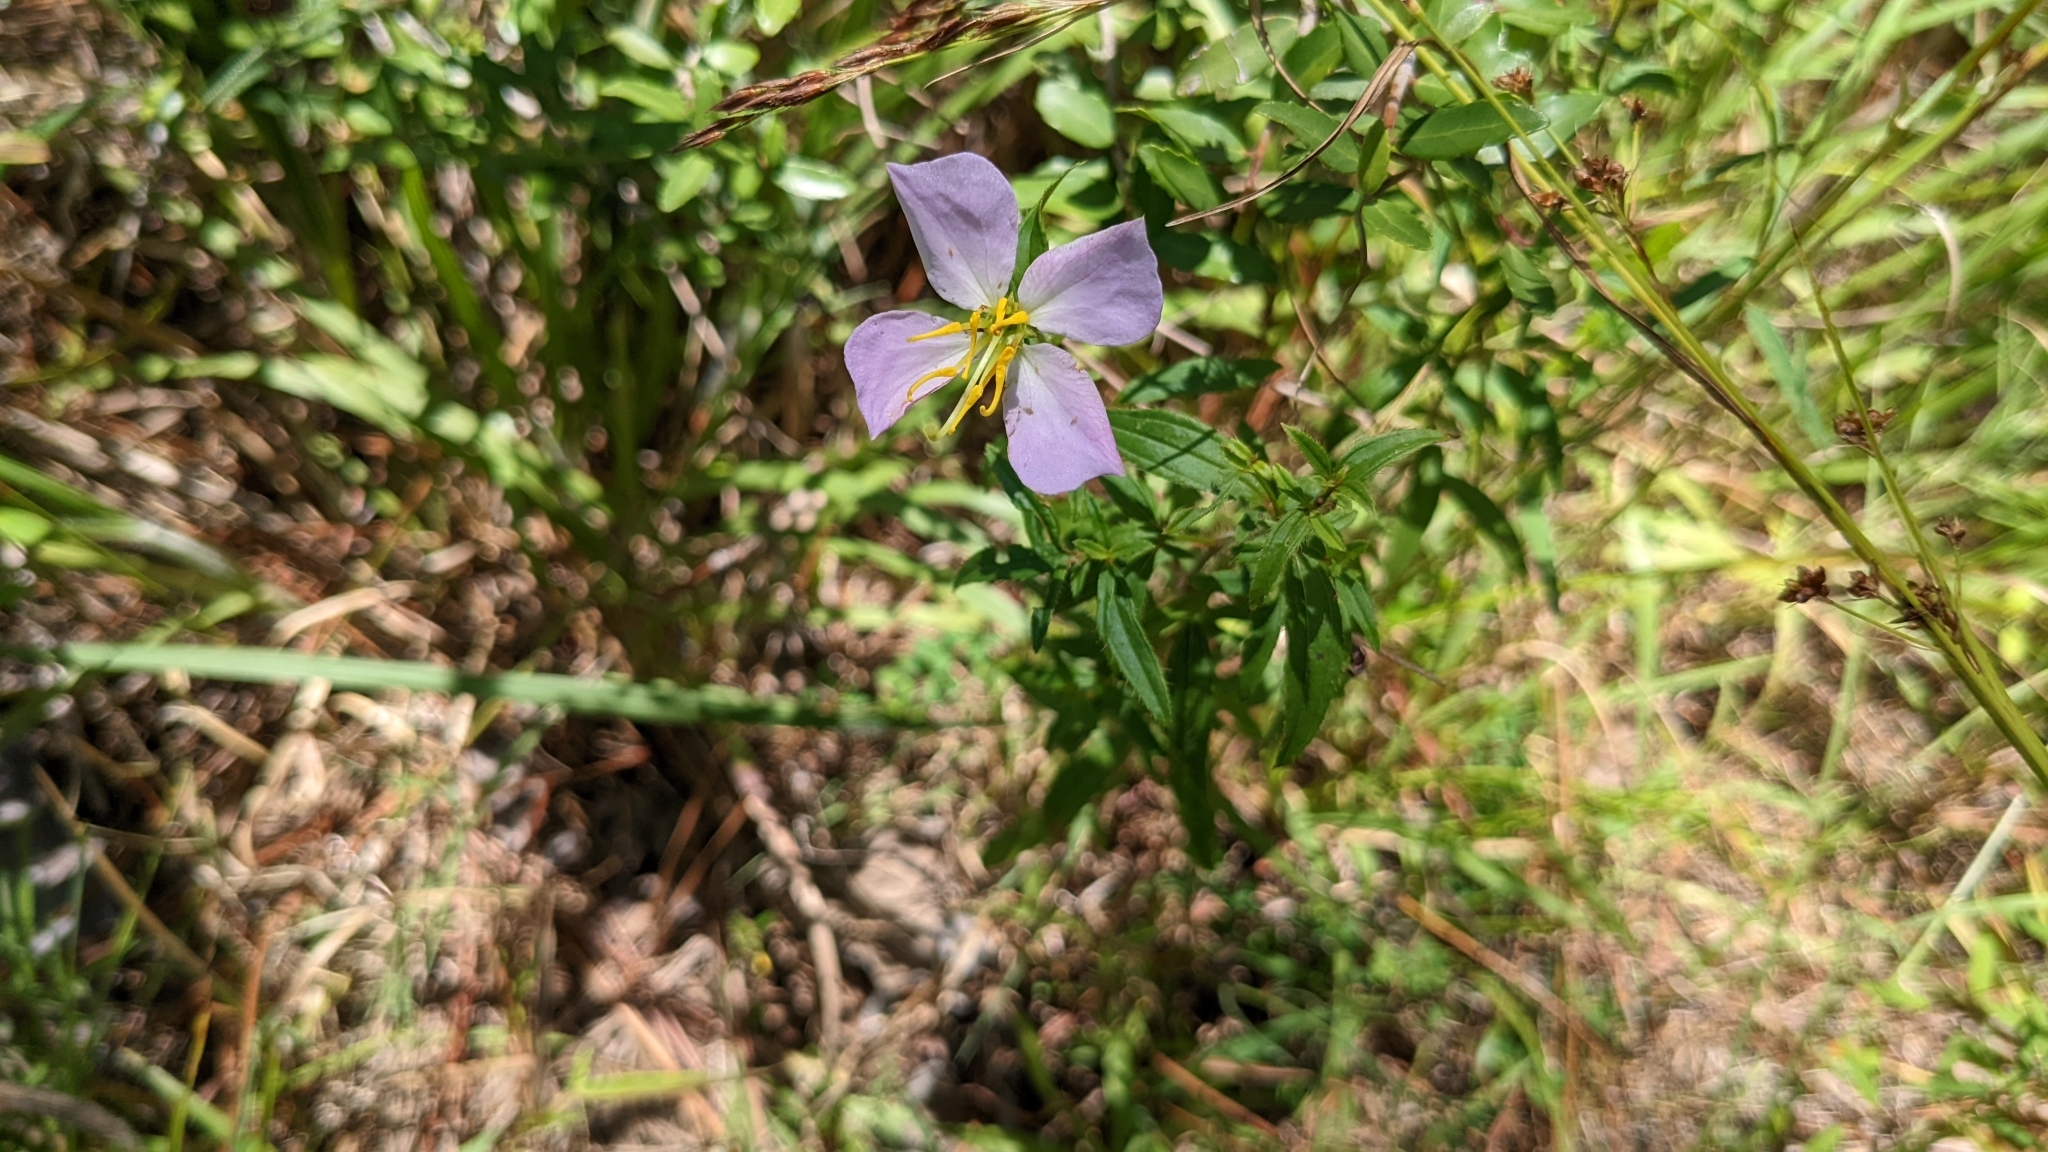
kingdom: Plantae
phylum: Tracheophyta
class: Magnoliopsida
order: Myrtales
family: Melastomataceae
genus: Rhexia
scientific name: Rhexia mariana
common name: Dull meadow-pitcher
